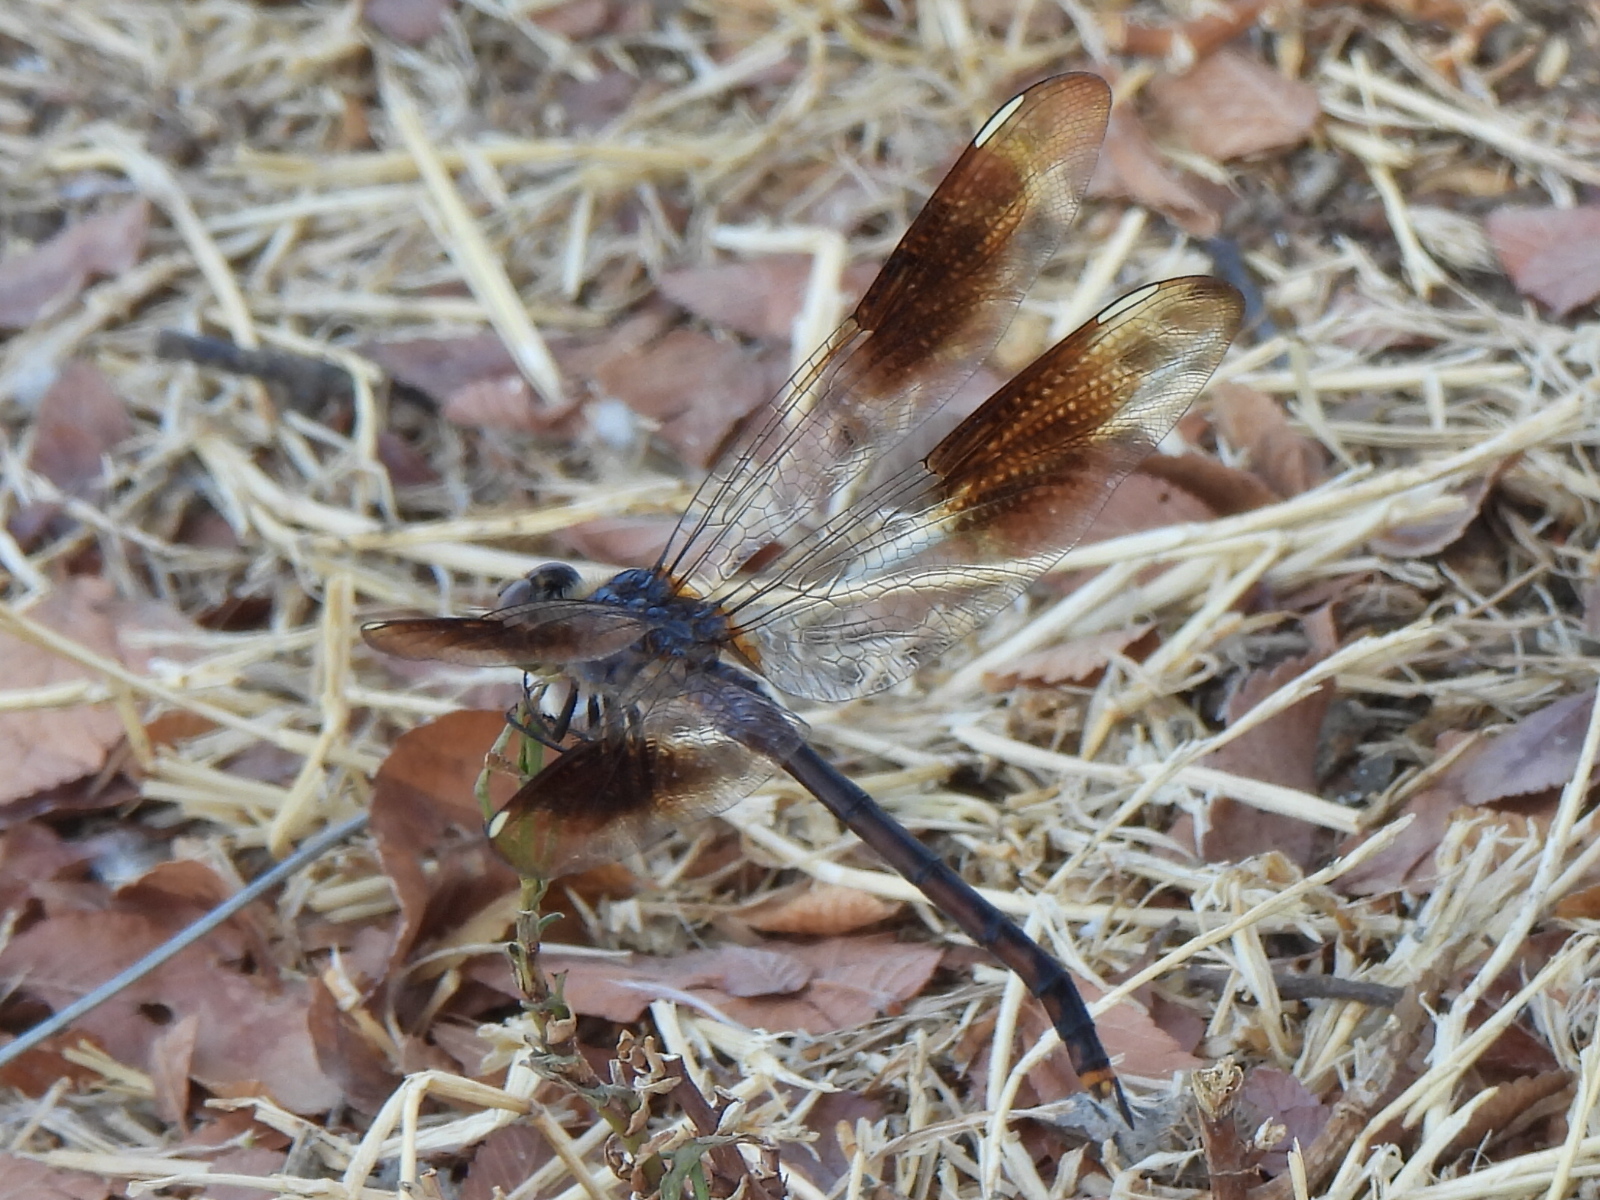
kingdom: Animalia
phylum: Arthropoda
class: Insecta
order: Odonata
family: Libellulidae
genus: Brachymesia
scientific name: Brachymesia gravida
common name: Four-spotted pennant
